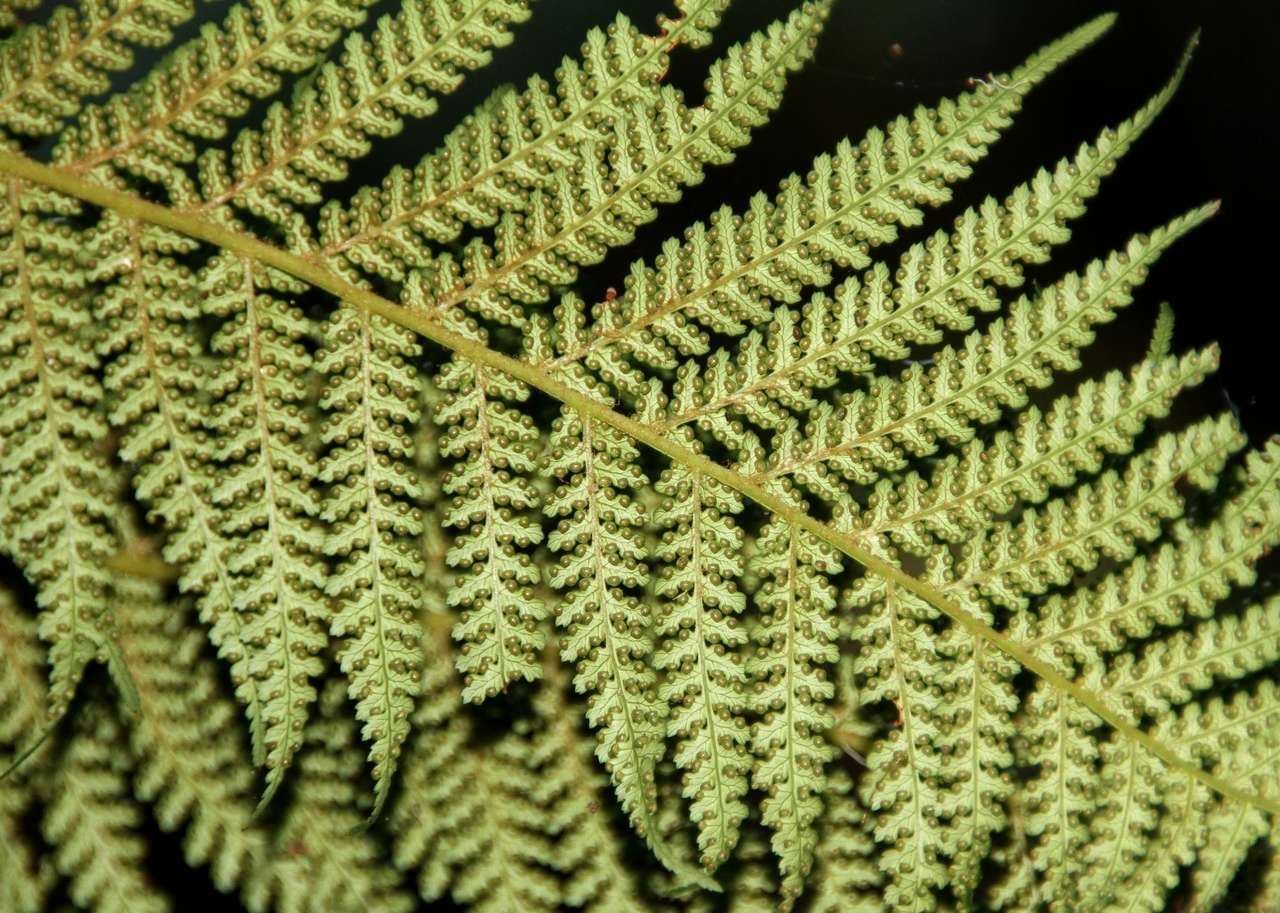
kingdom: Plantae
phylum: Tracheophyta
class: Polypodiopsida
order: Cyatheales
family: Dicksoniaceae
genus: Dicksonia
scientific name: Dicksonia antarctica
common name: Australian treefern
